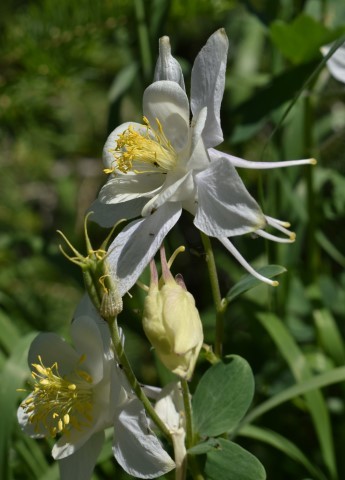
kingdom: Plantae
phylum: Tracheophyta
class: Magnoliopsida
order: Ranunculales
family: Ranunculaceae
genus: Aquilegia
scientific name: Aquilegia coerulea
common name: Rocky mountain columbine
